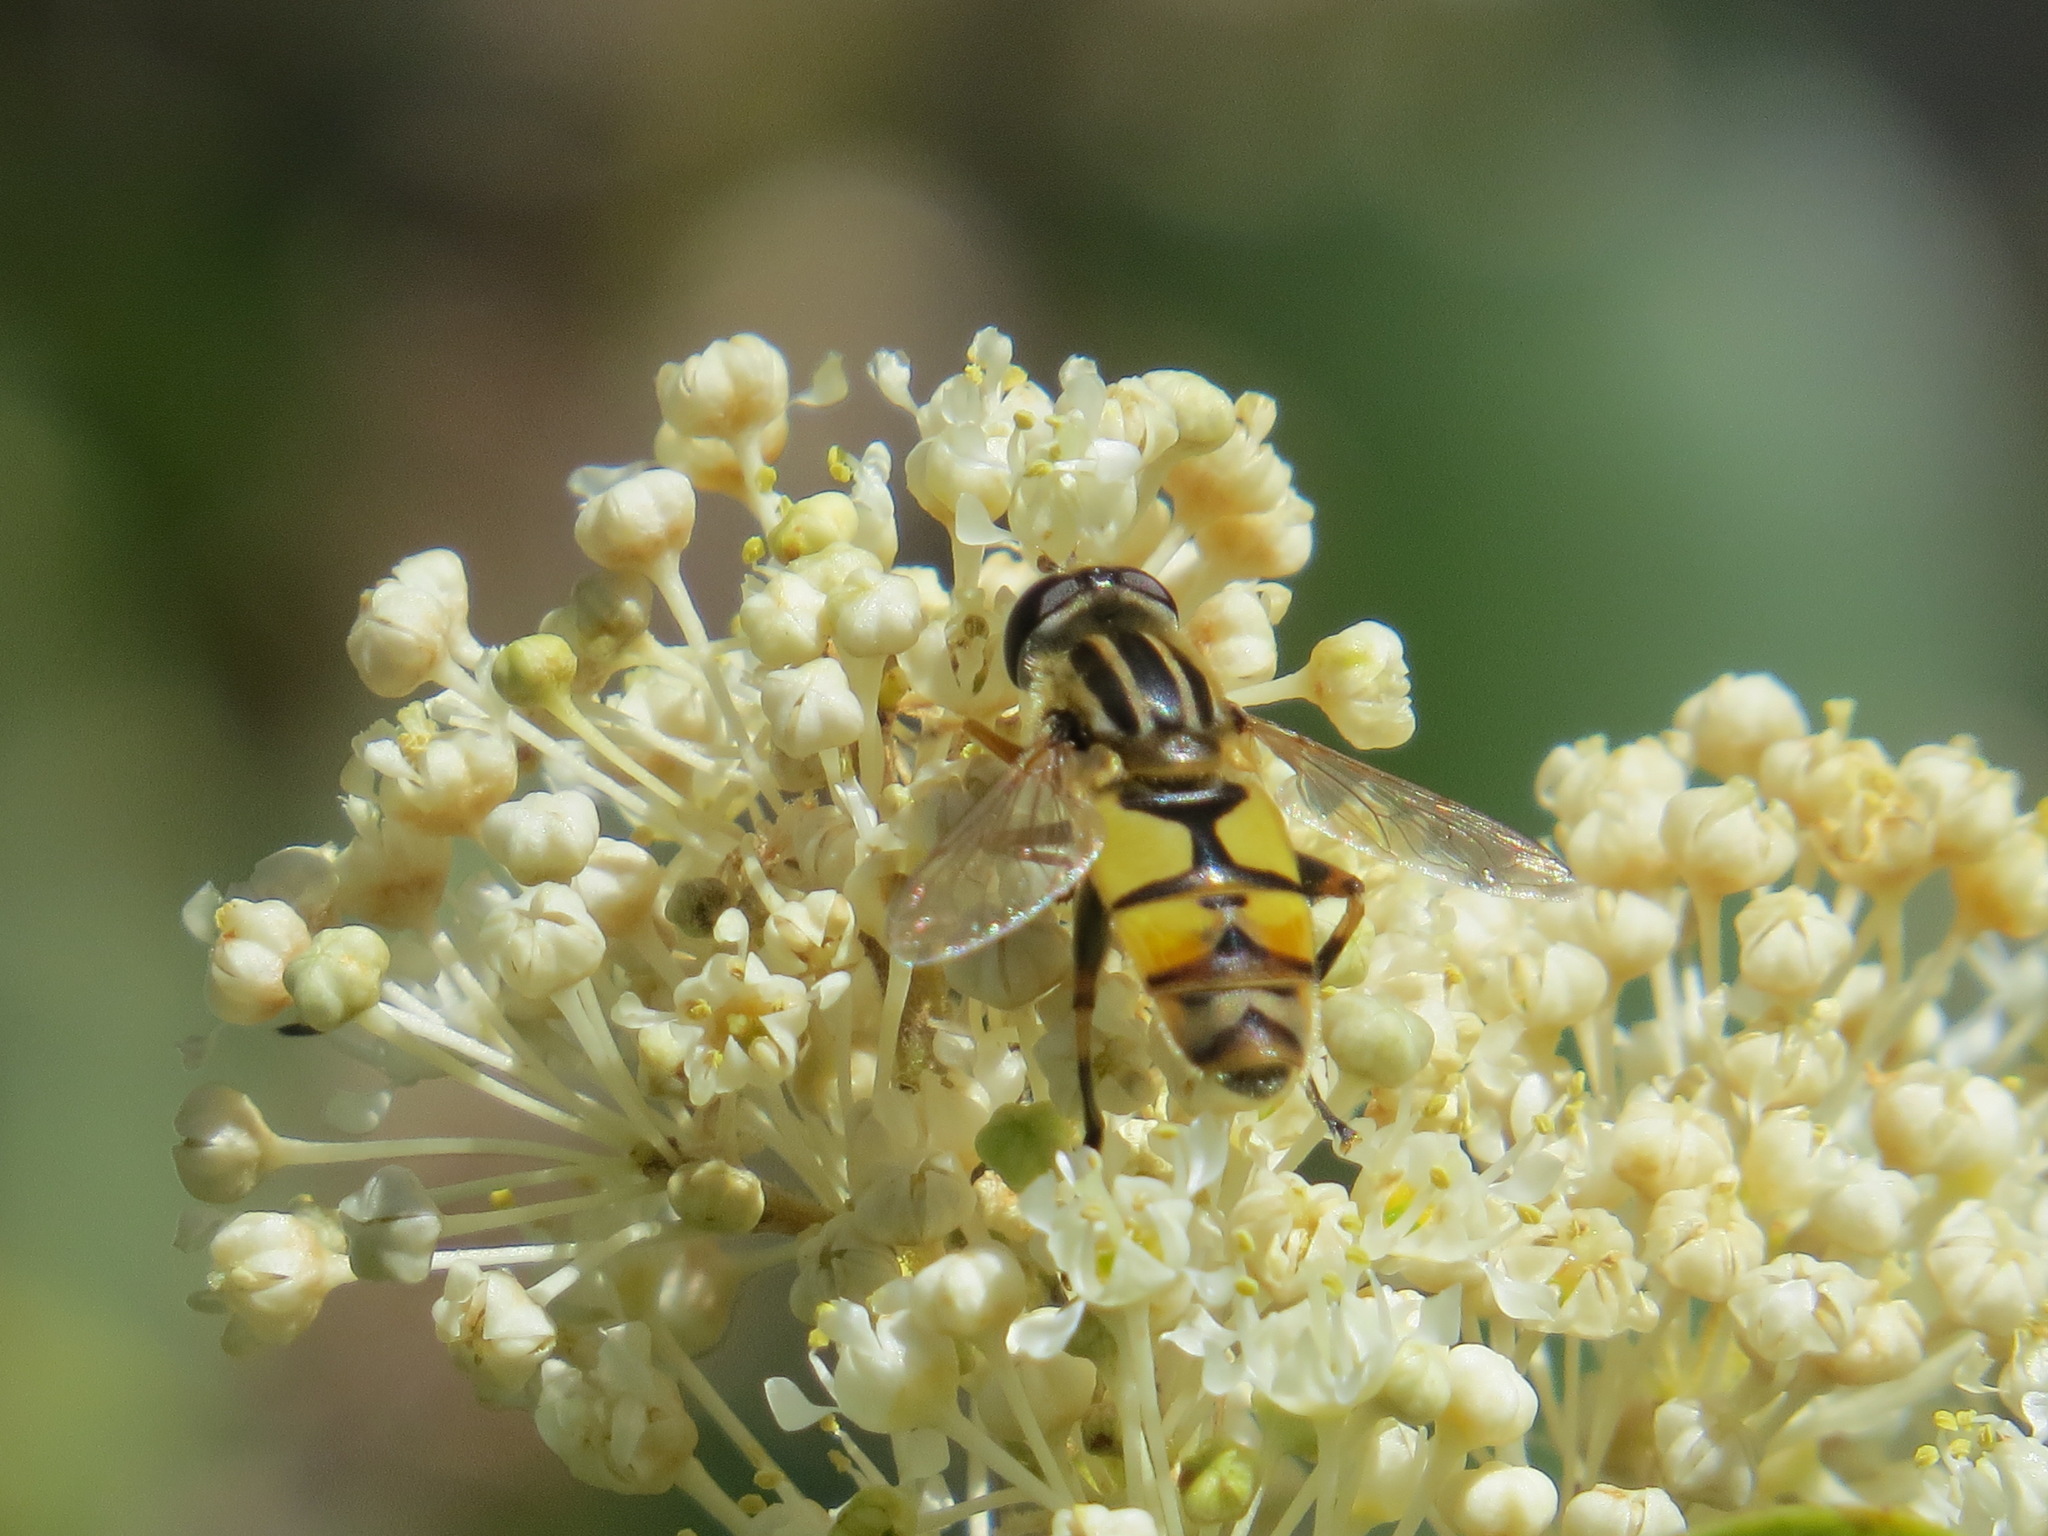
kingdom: Animalia
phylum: Arthropoda
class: Insecta
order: Diptera
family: Syrphidae
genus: Helophilus
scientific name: Helophilus latifrons
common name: Broad-headed marsh fly
